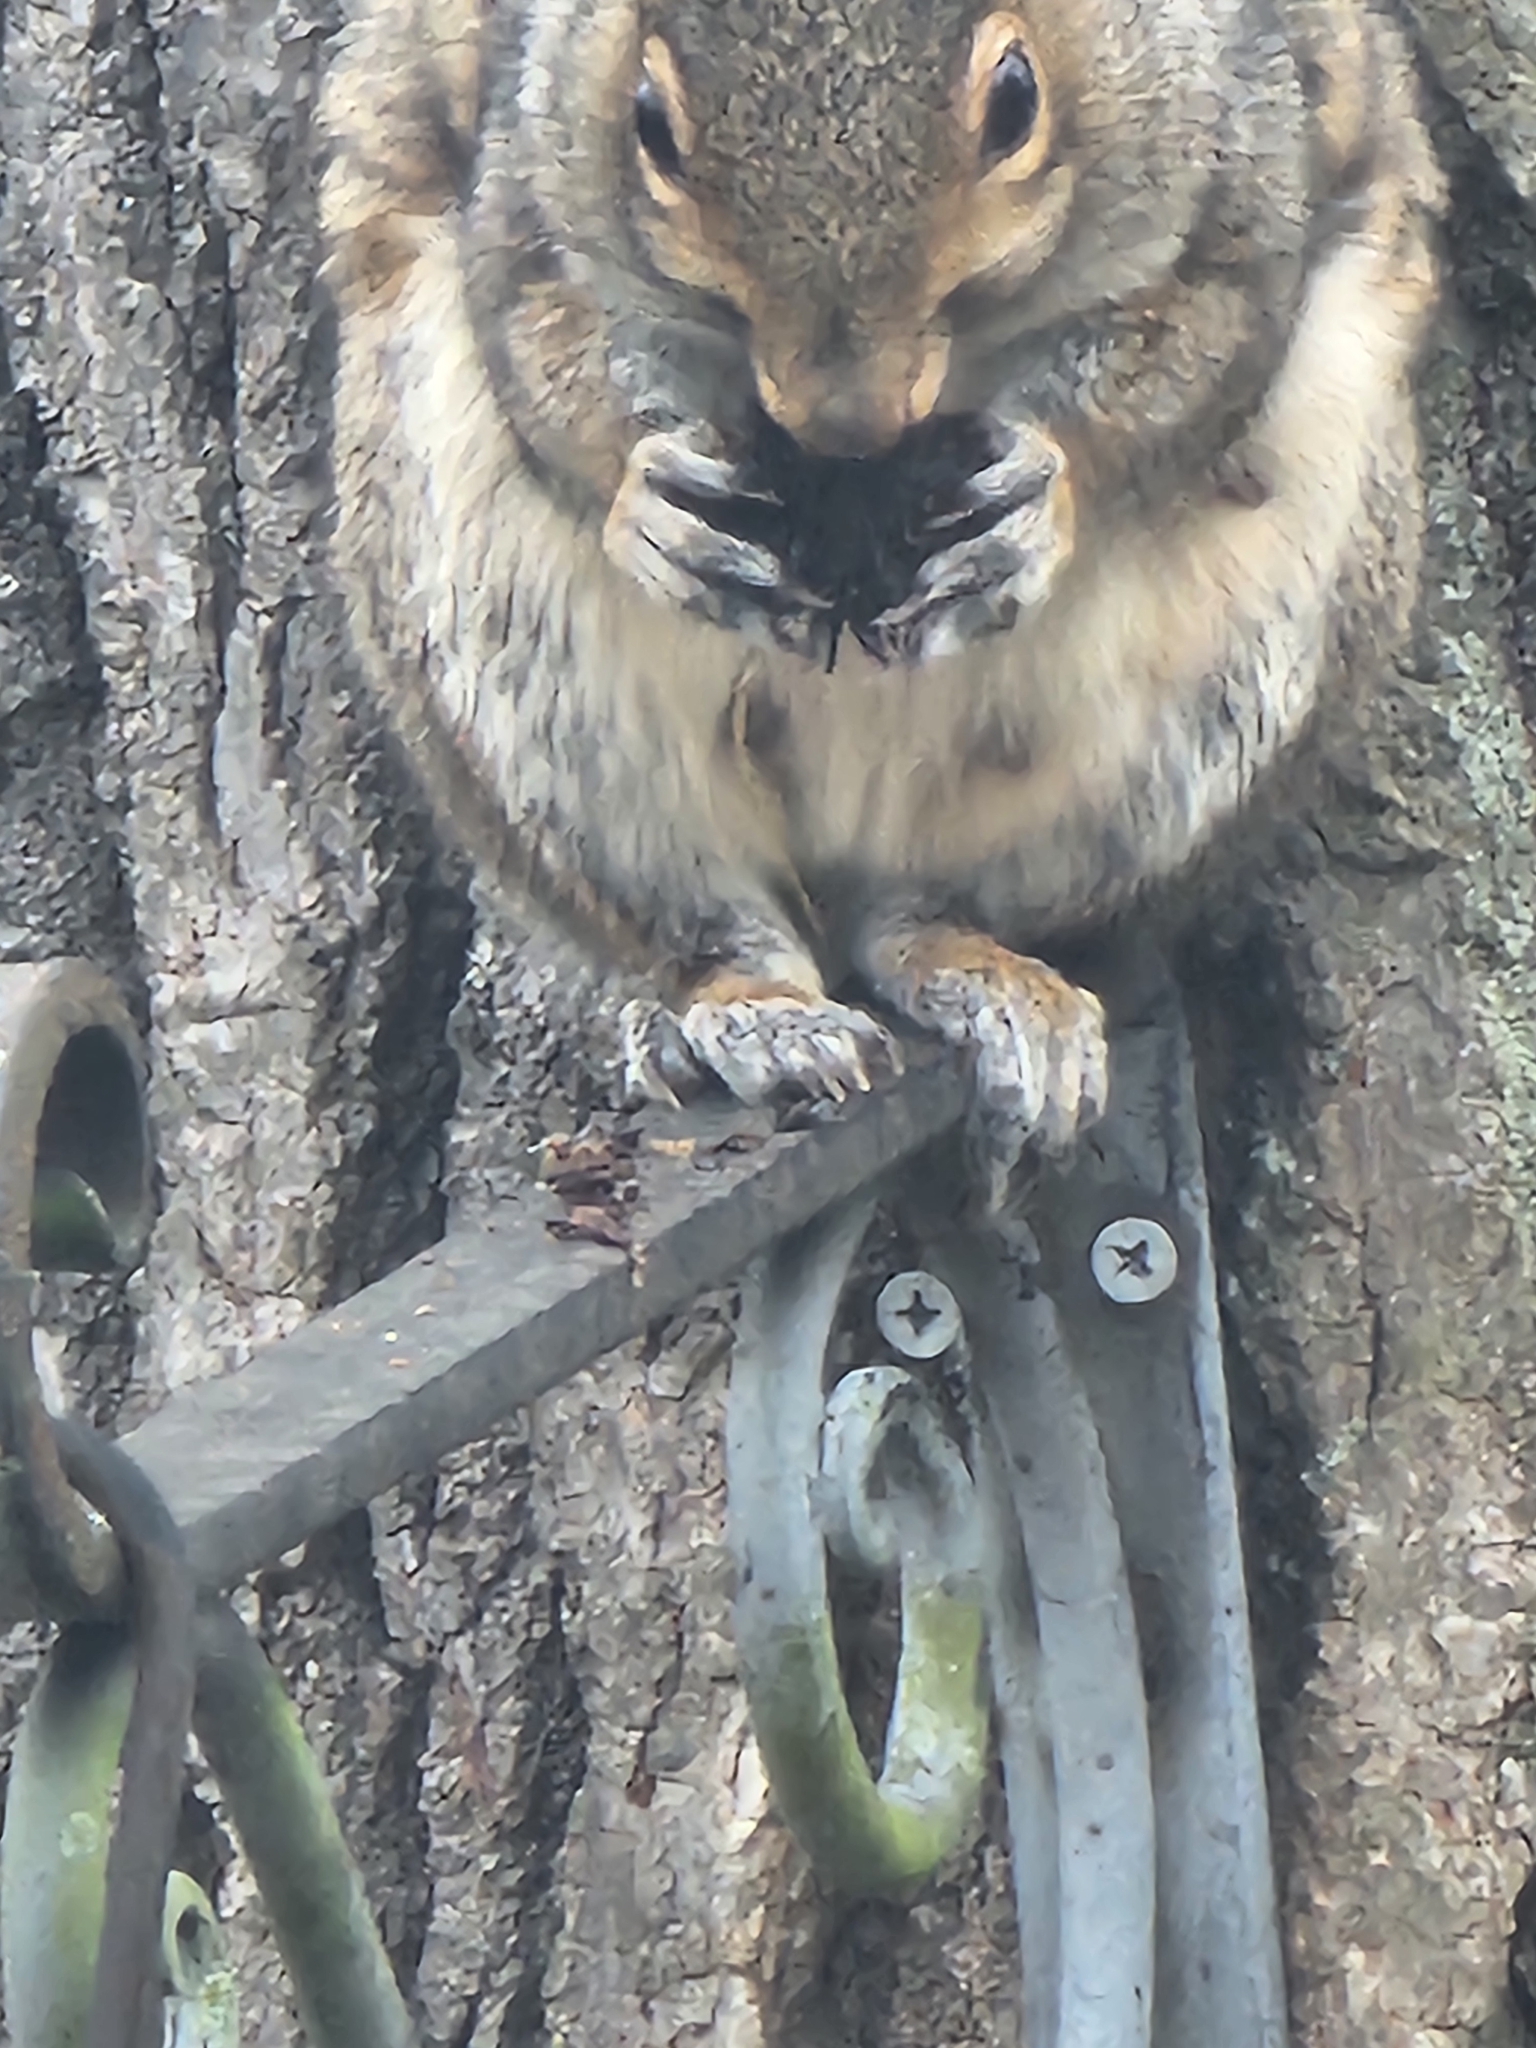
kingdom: Animalia
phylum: Chordata
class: Mammalia
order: Rodentia
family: Sciuridae
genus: Sciurus
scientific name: Sciurus carolinensis
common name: Eastern gray squirrel
